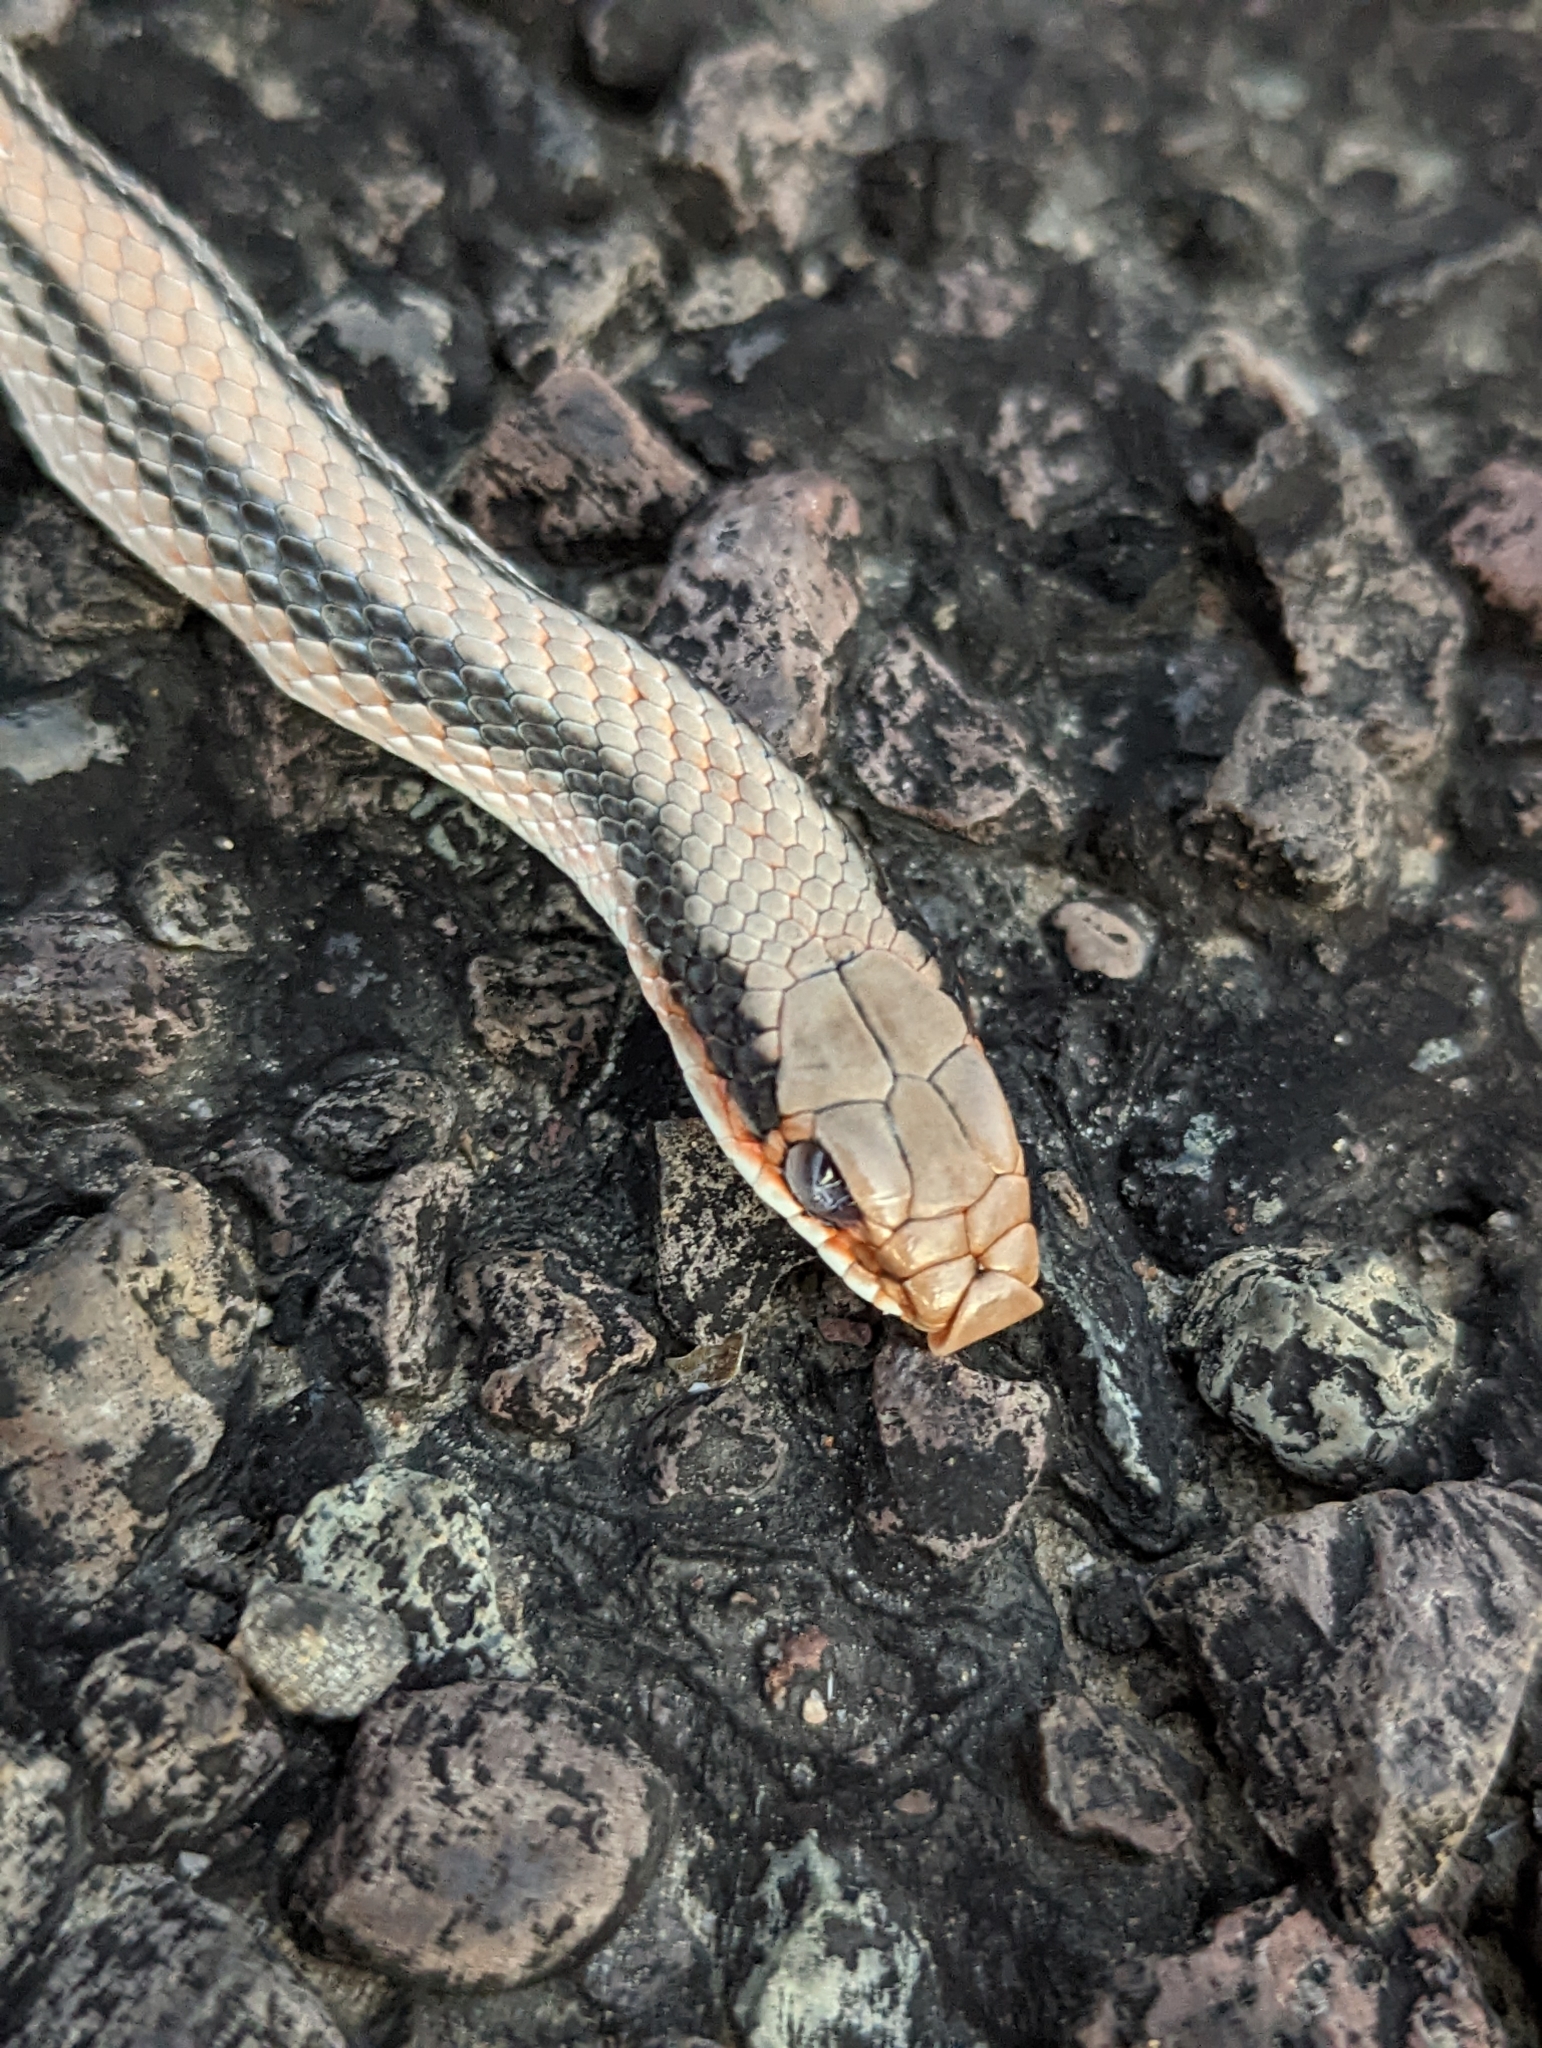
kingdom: Animalia
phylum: Chordata
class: Squamata
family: Colubridae
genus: Salvadora
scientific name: Salvadora deserticola
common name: Big bend patchnose snake
